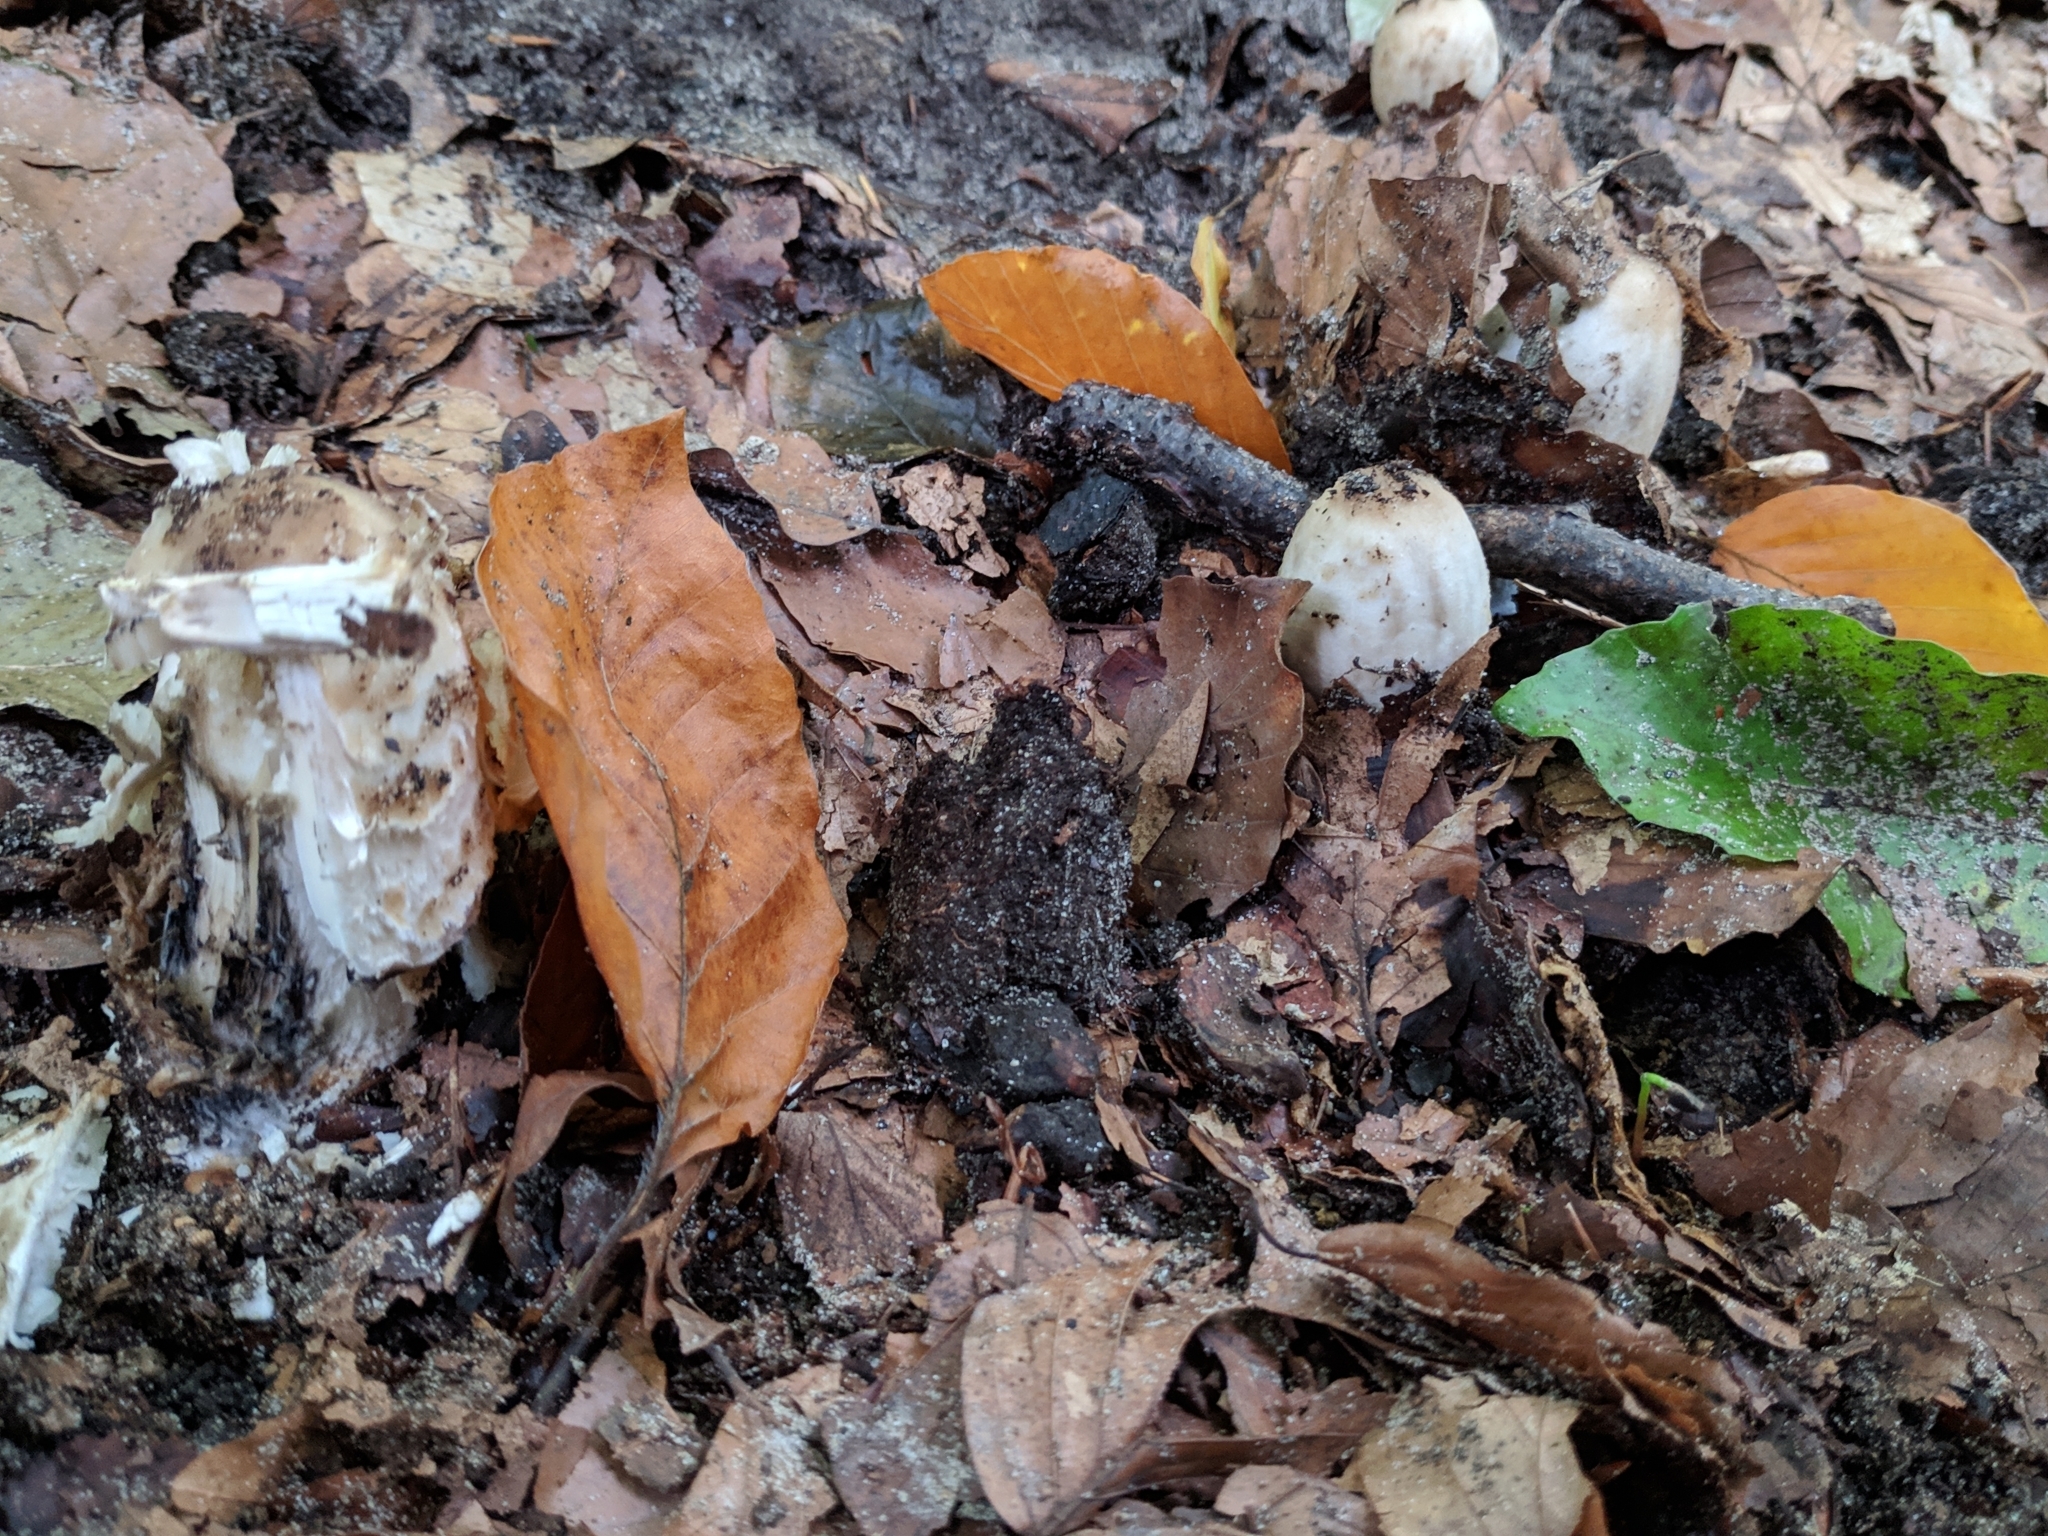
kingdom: Fungi
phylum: Basidiomycota
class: Agaricomycetes
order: Agaricales
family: Agaricaceae
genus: Coprinus
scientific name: Coprinus comatus
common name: Lawyer's wig
